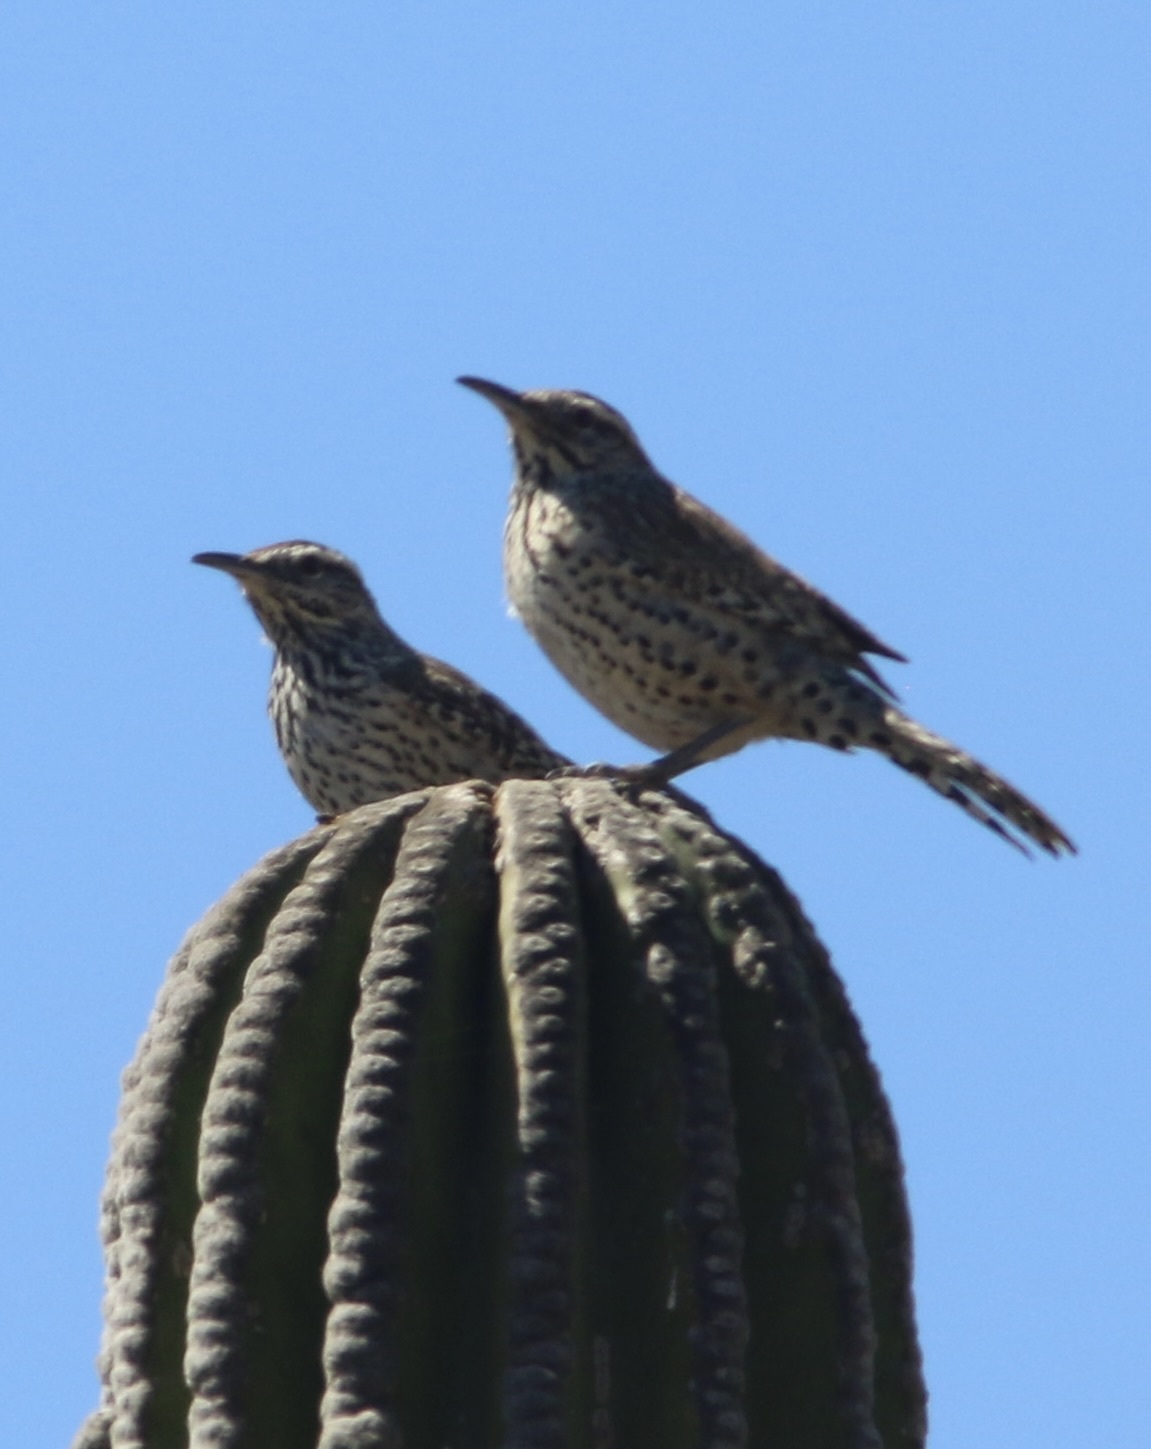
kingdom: Animalia
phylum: Chordata
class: Aves
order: Passeriformes
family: Troglodytidae
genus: Campylorhynchus
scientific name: Campylorhynchus brunneicapillus
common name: Cactus wren
